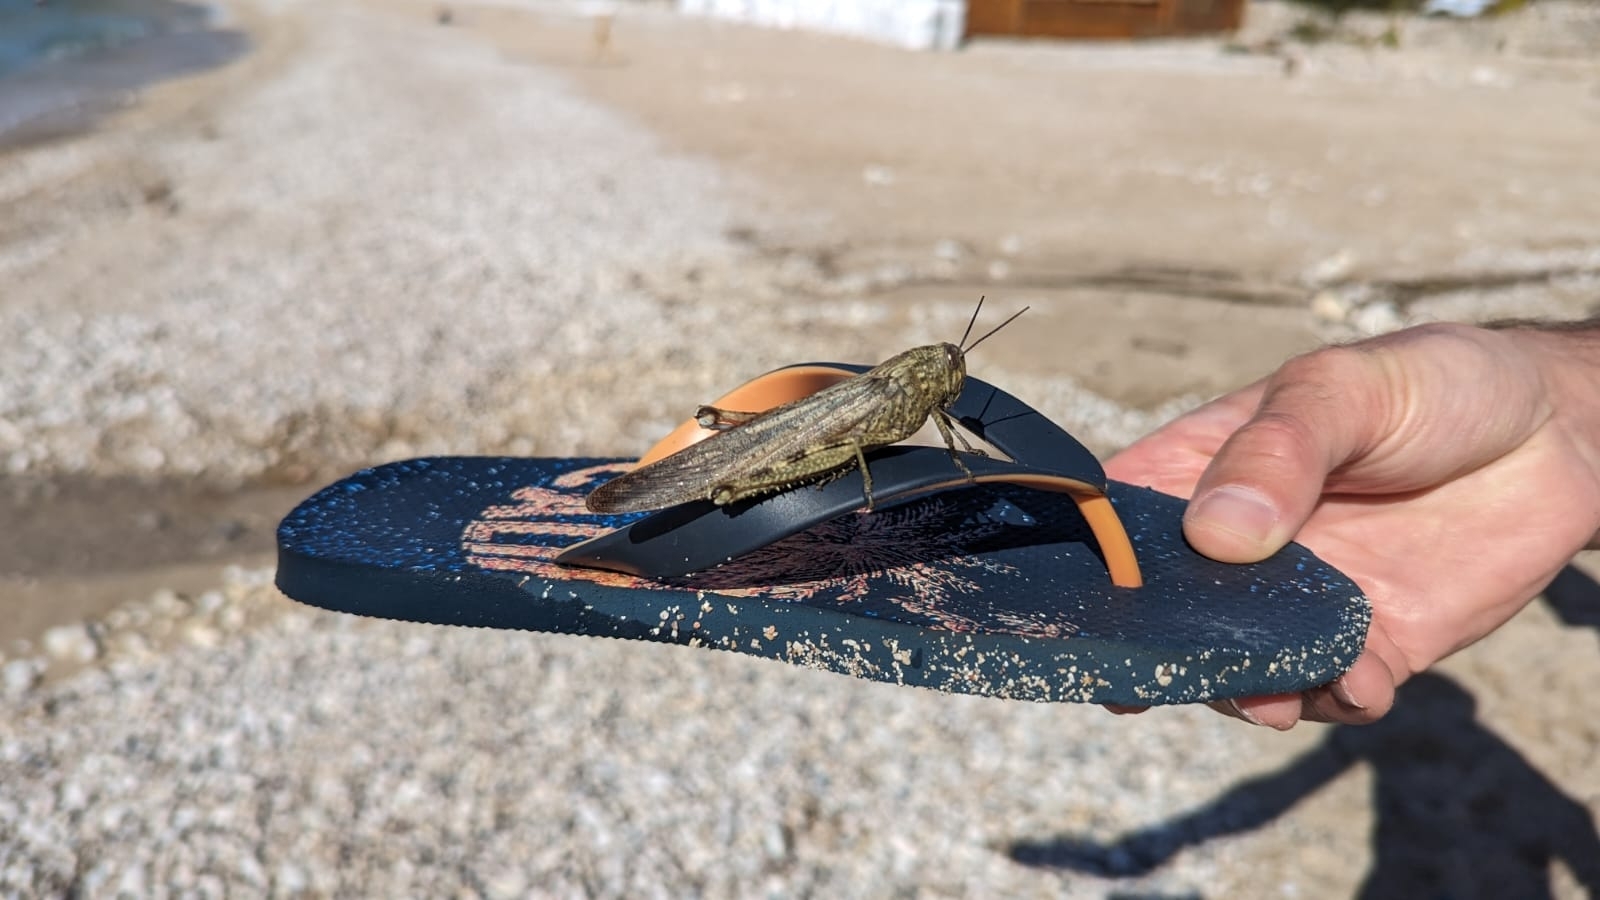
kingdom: Animalia
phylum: Arthropoda
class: Insecta
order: Orthoptera
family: Acrididae
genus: Anacridium
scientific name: Anacridium aegyptium
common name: Egyptian grasshopper
